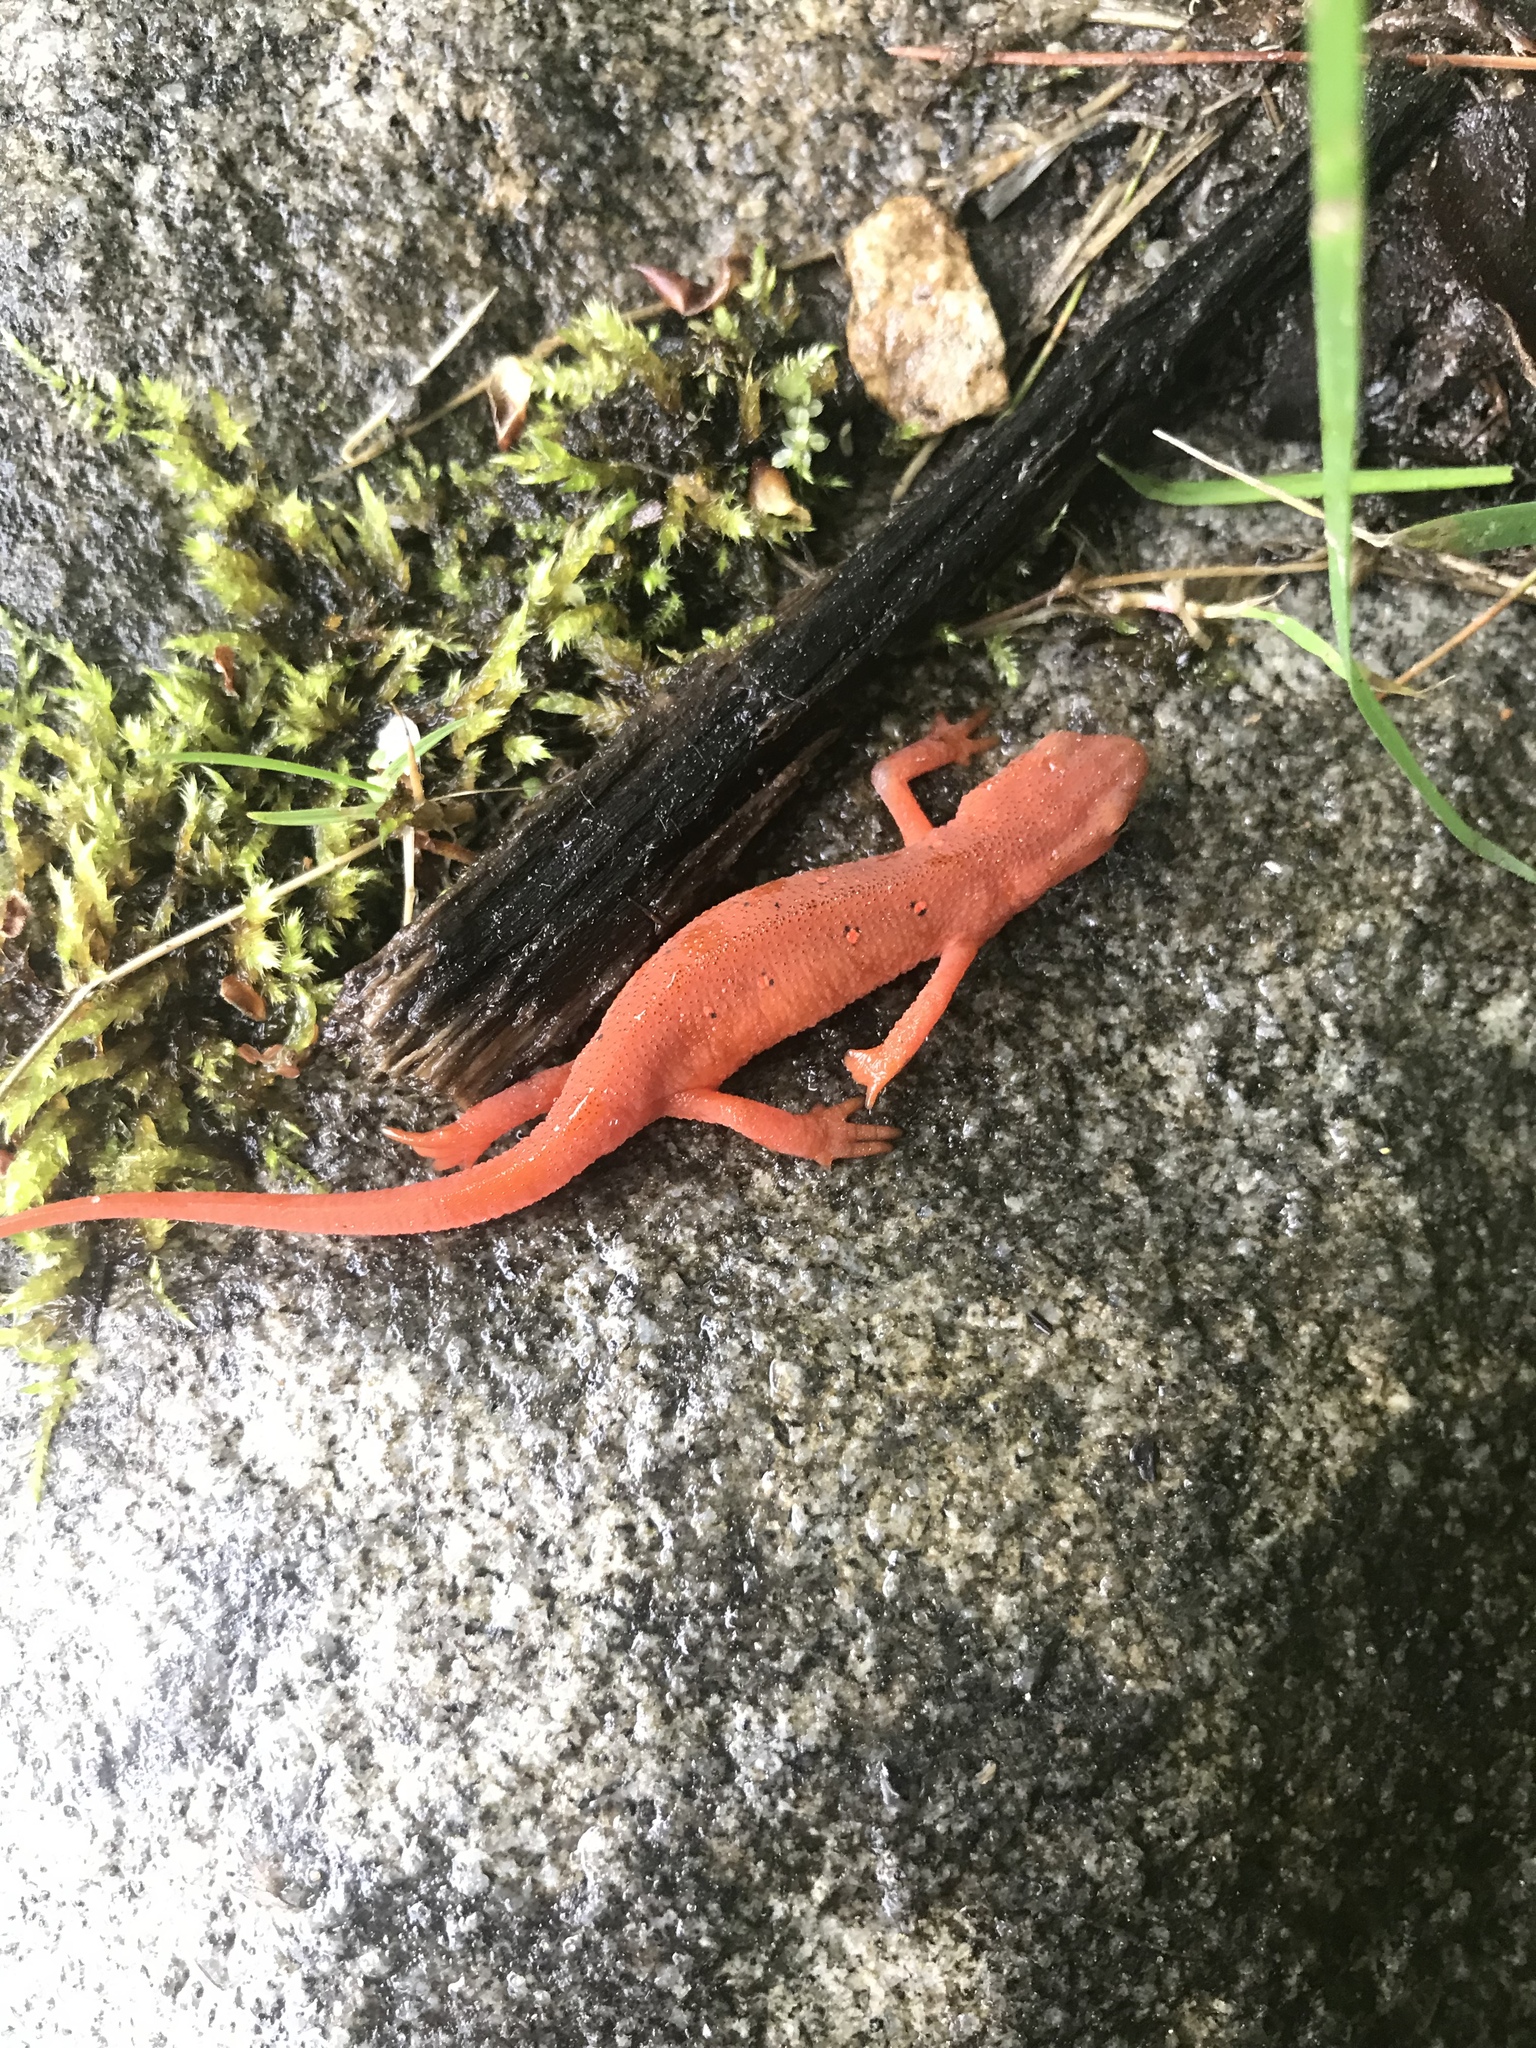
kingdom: Animalia
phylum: Chordata
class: Amphibia
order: Caudata
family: Salamandridae
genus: Notophthalmus
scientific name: Notophthalmus viridescens
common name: Eastern newt
